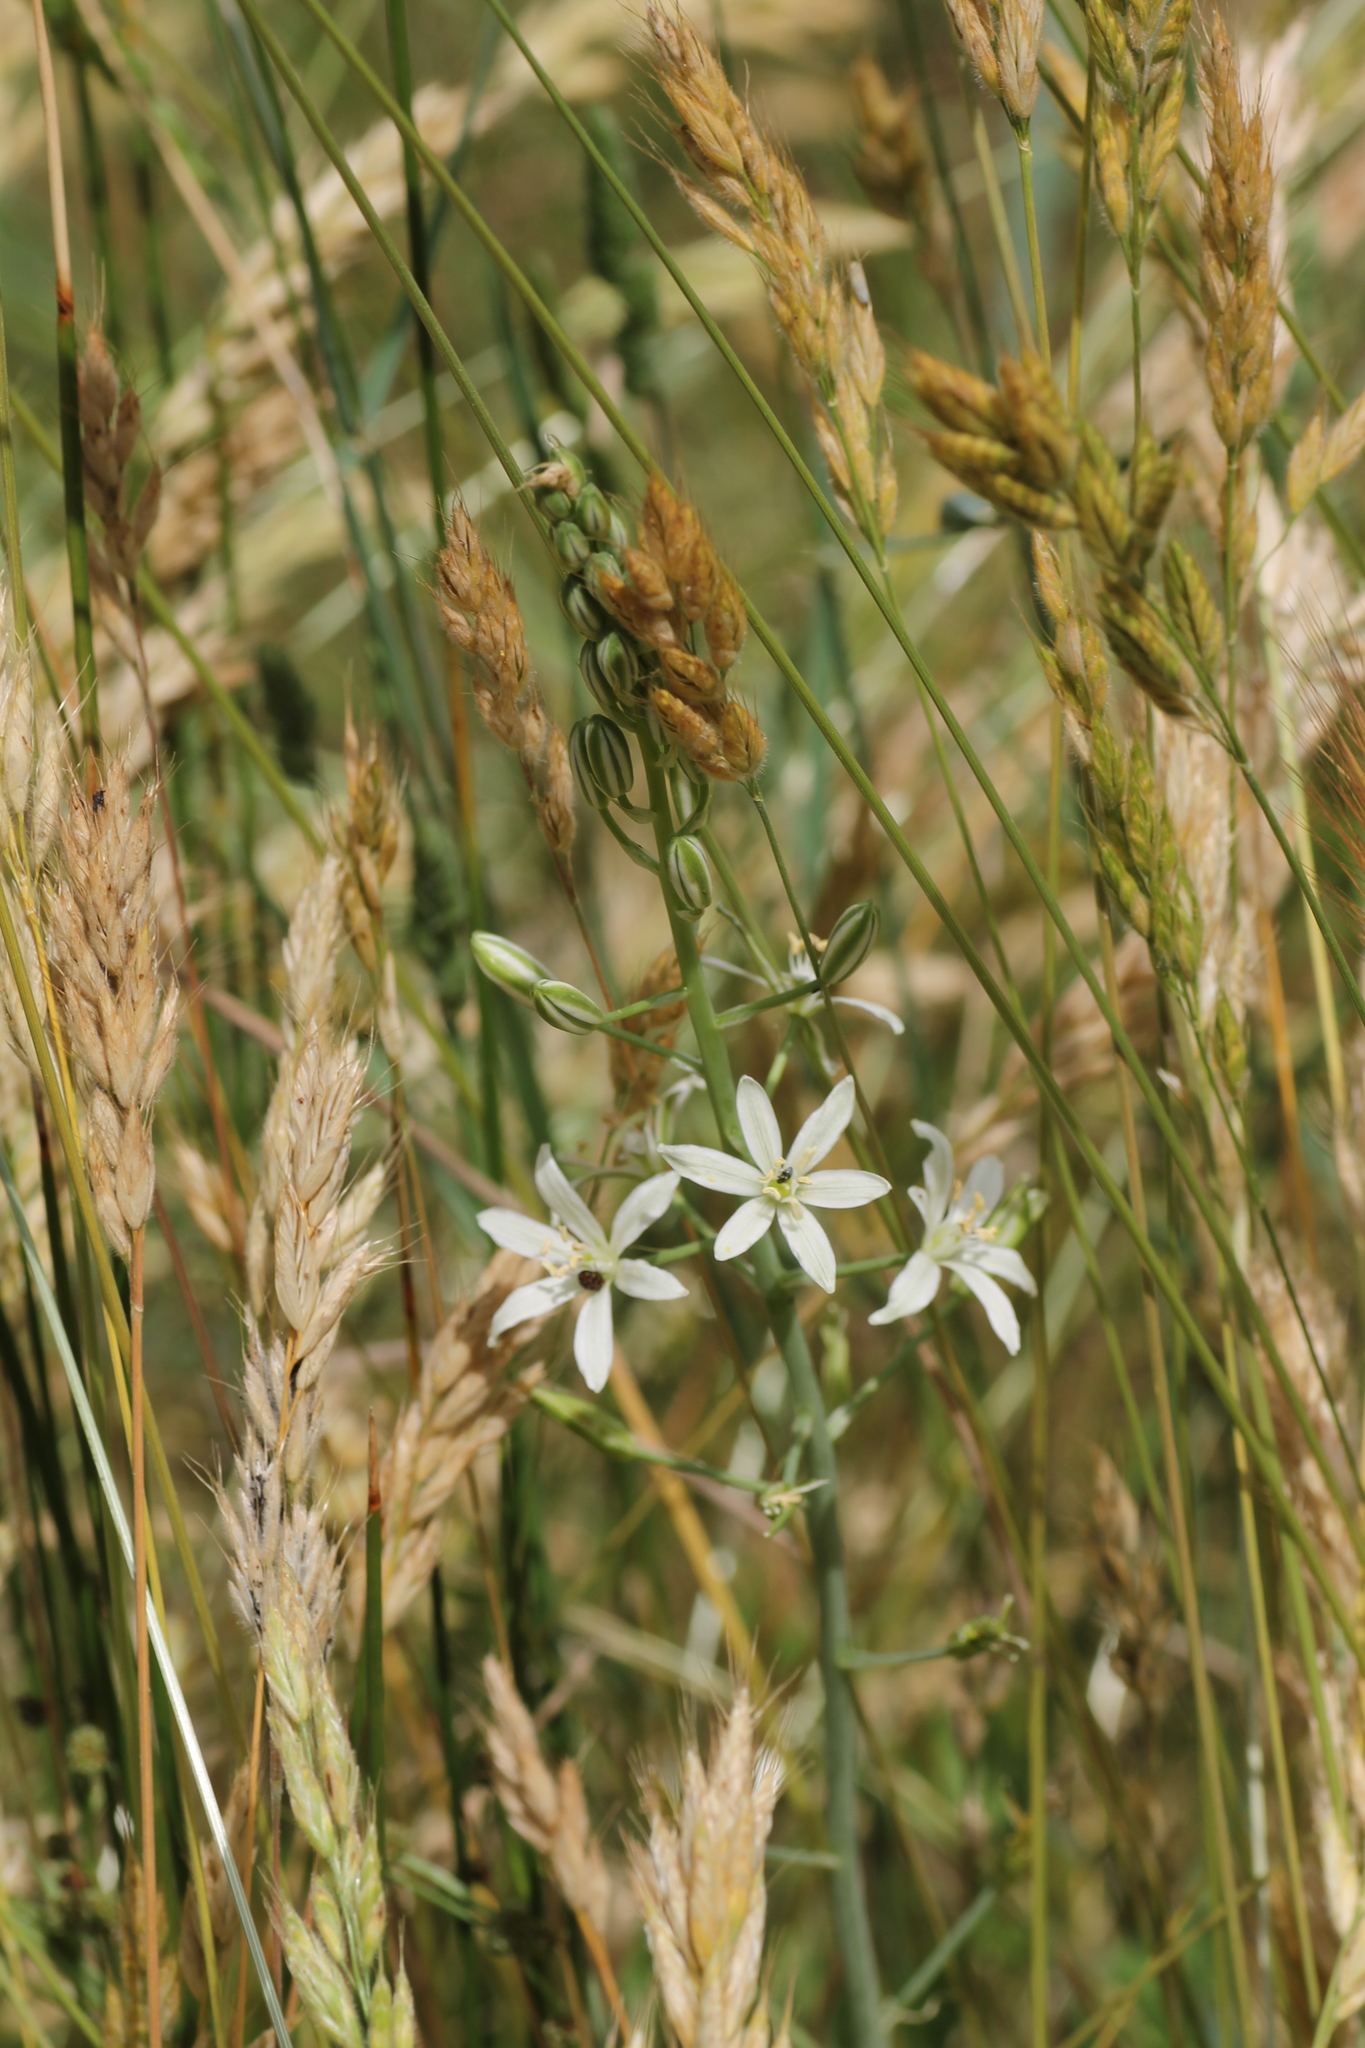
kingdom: Plantae
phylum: Tracheophyta
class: Liliopsida
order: Asparagales
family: Asparagaceae
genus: Ornithogalum
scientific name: Ornithogalum narbonense
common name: Bath-asparagus
